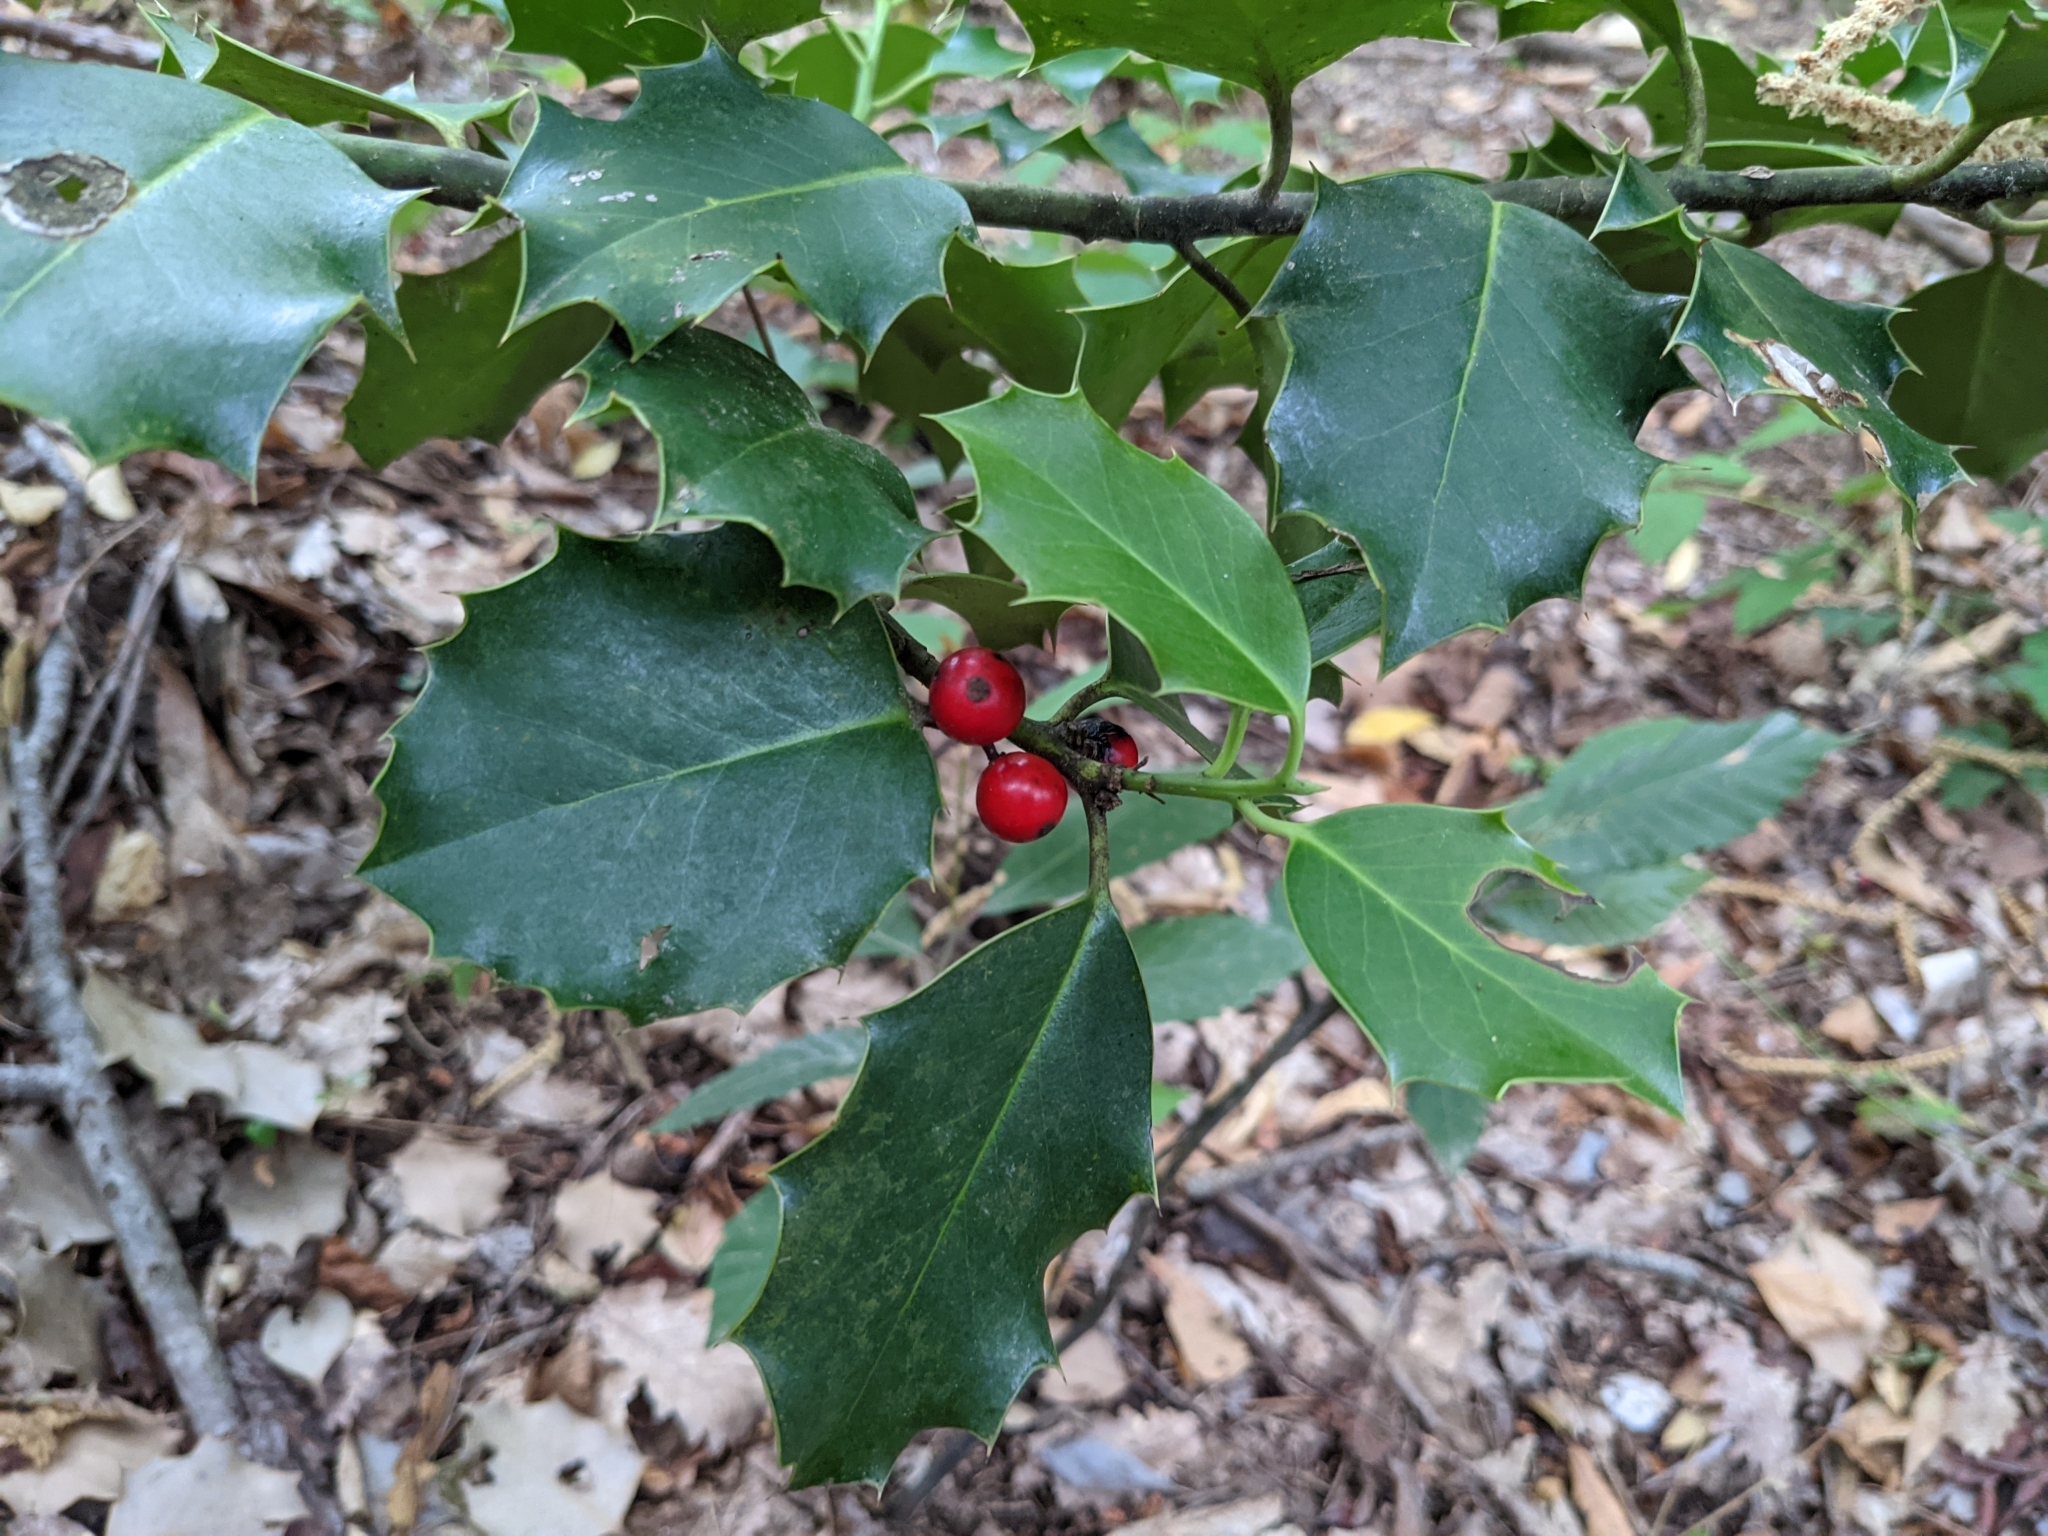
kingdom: Plantae
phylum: Tracheophyta
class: Magnoliopsida
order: Aquifoliales
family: Aquifoliaceae
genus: Ilex
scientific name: Ilex aquifolium
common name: English holly
